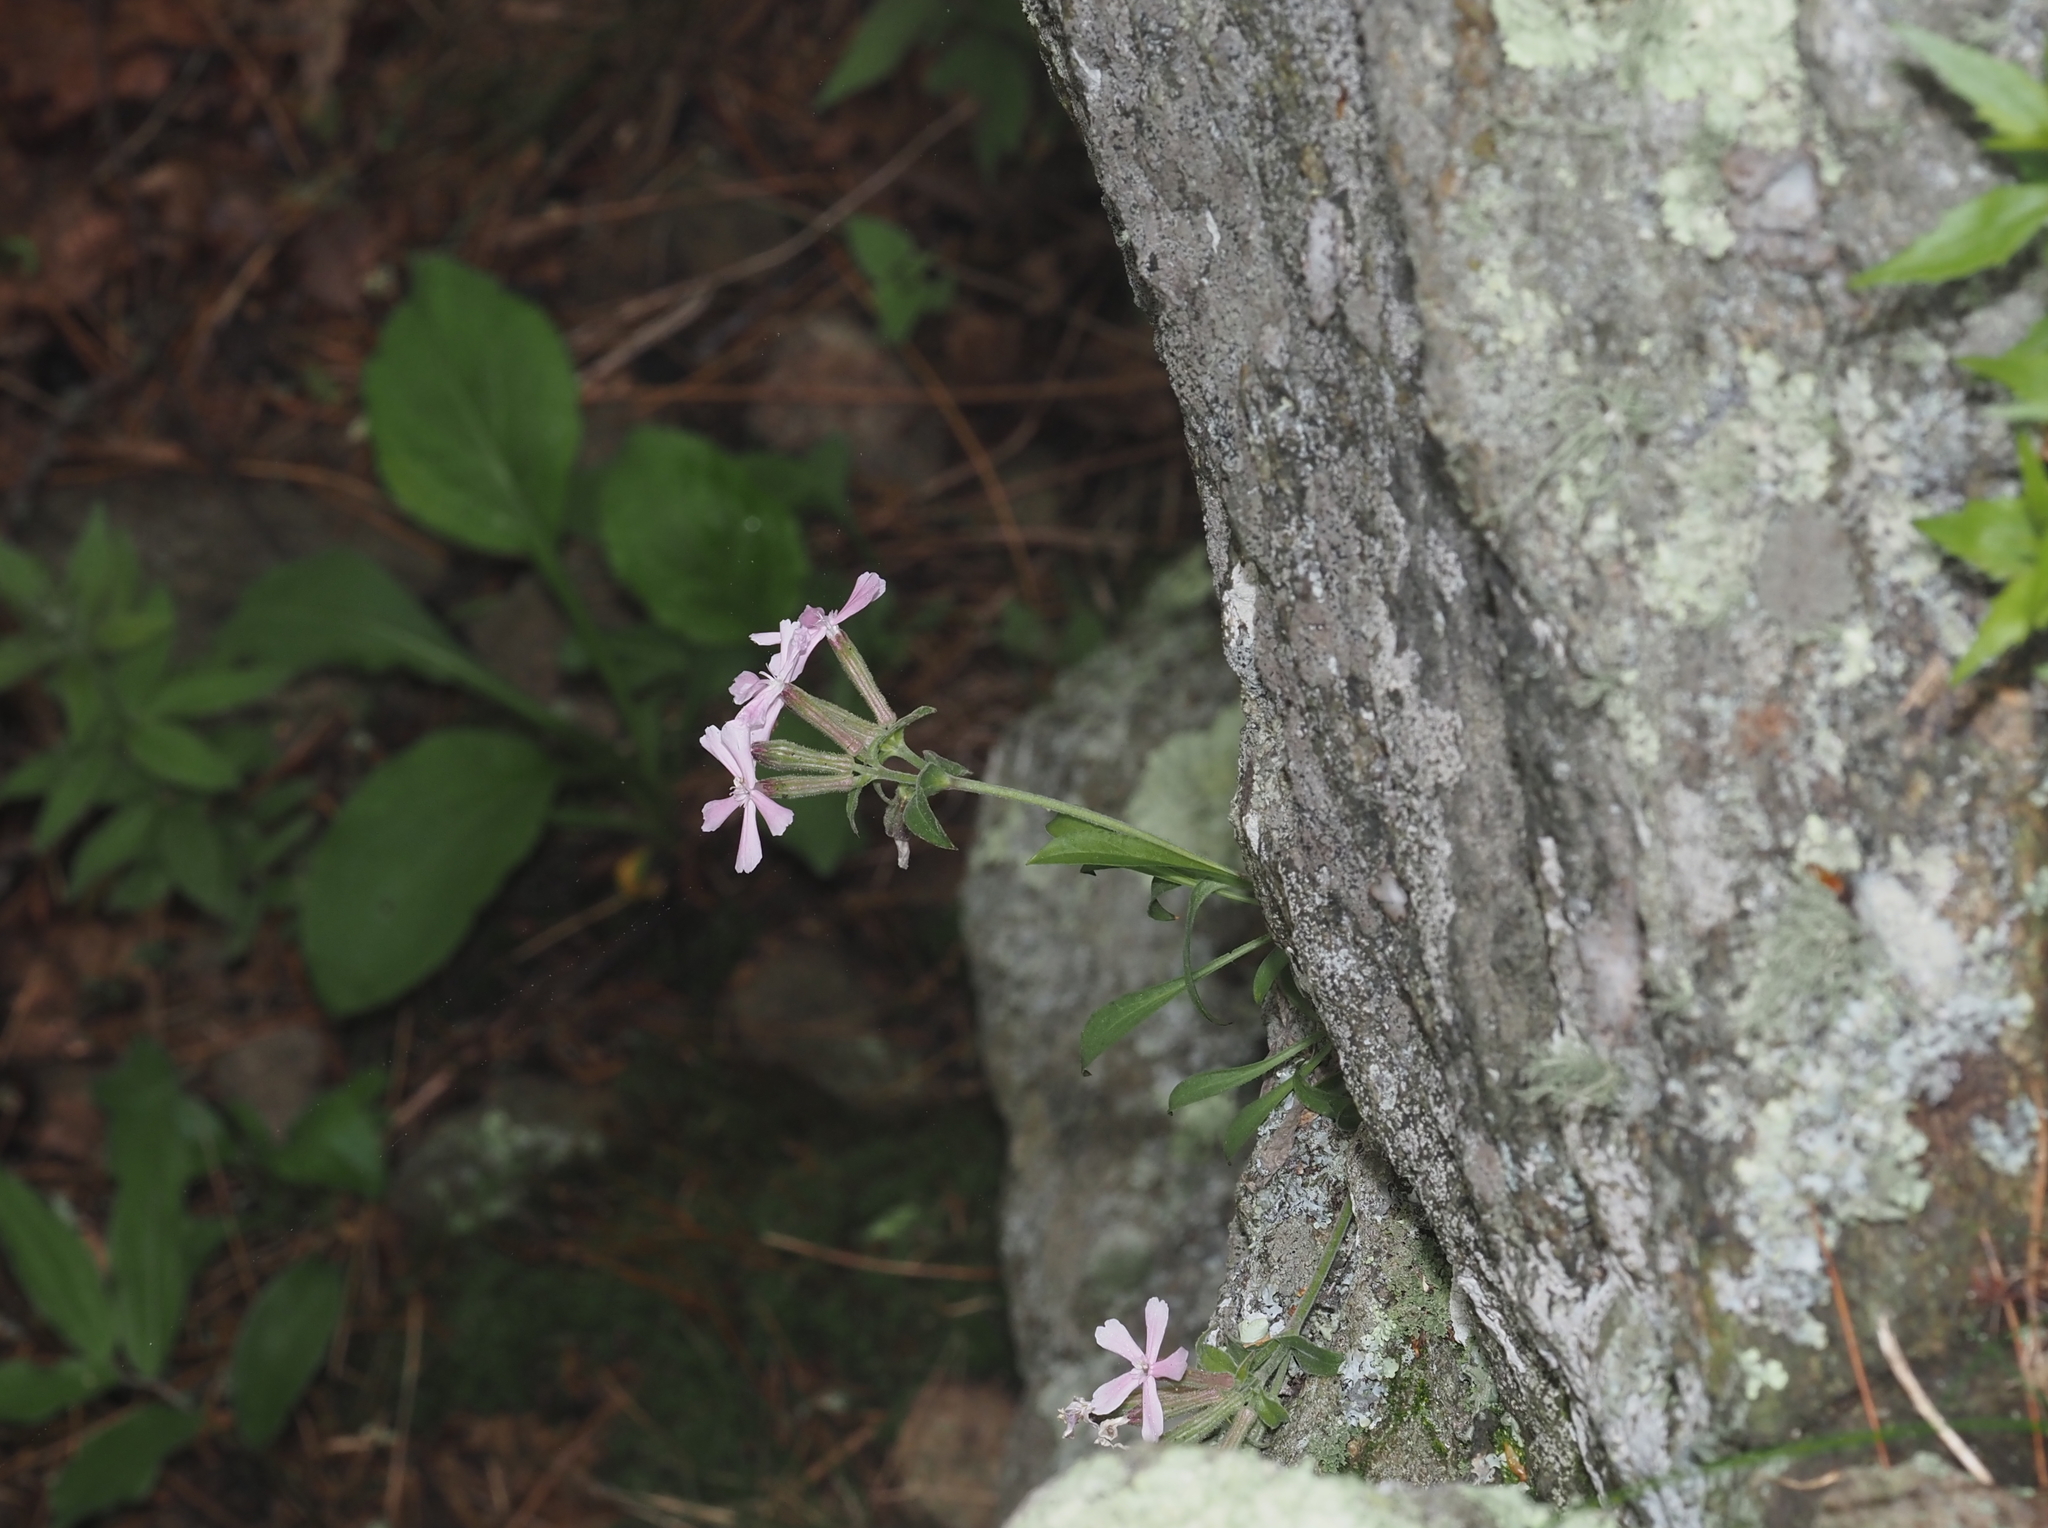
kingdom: Plantae
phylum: Tracheophyta
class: Magnoliopsida
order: Caryophyllales
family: Caryophyllaceae
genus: Silene
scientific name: Silene caroliniana
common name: Sticky catchfly
